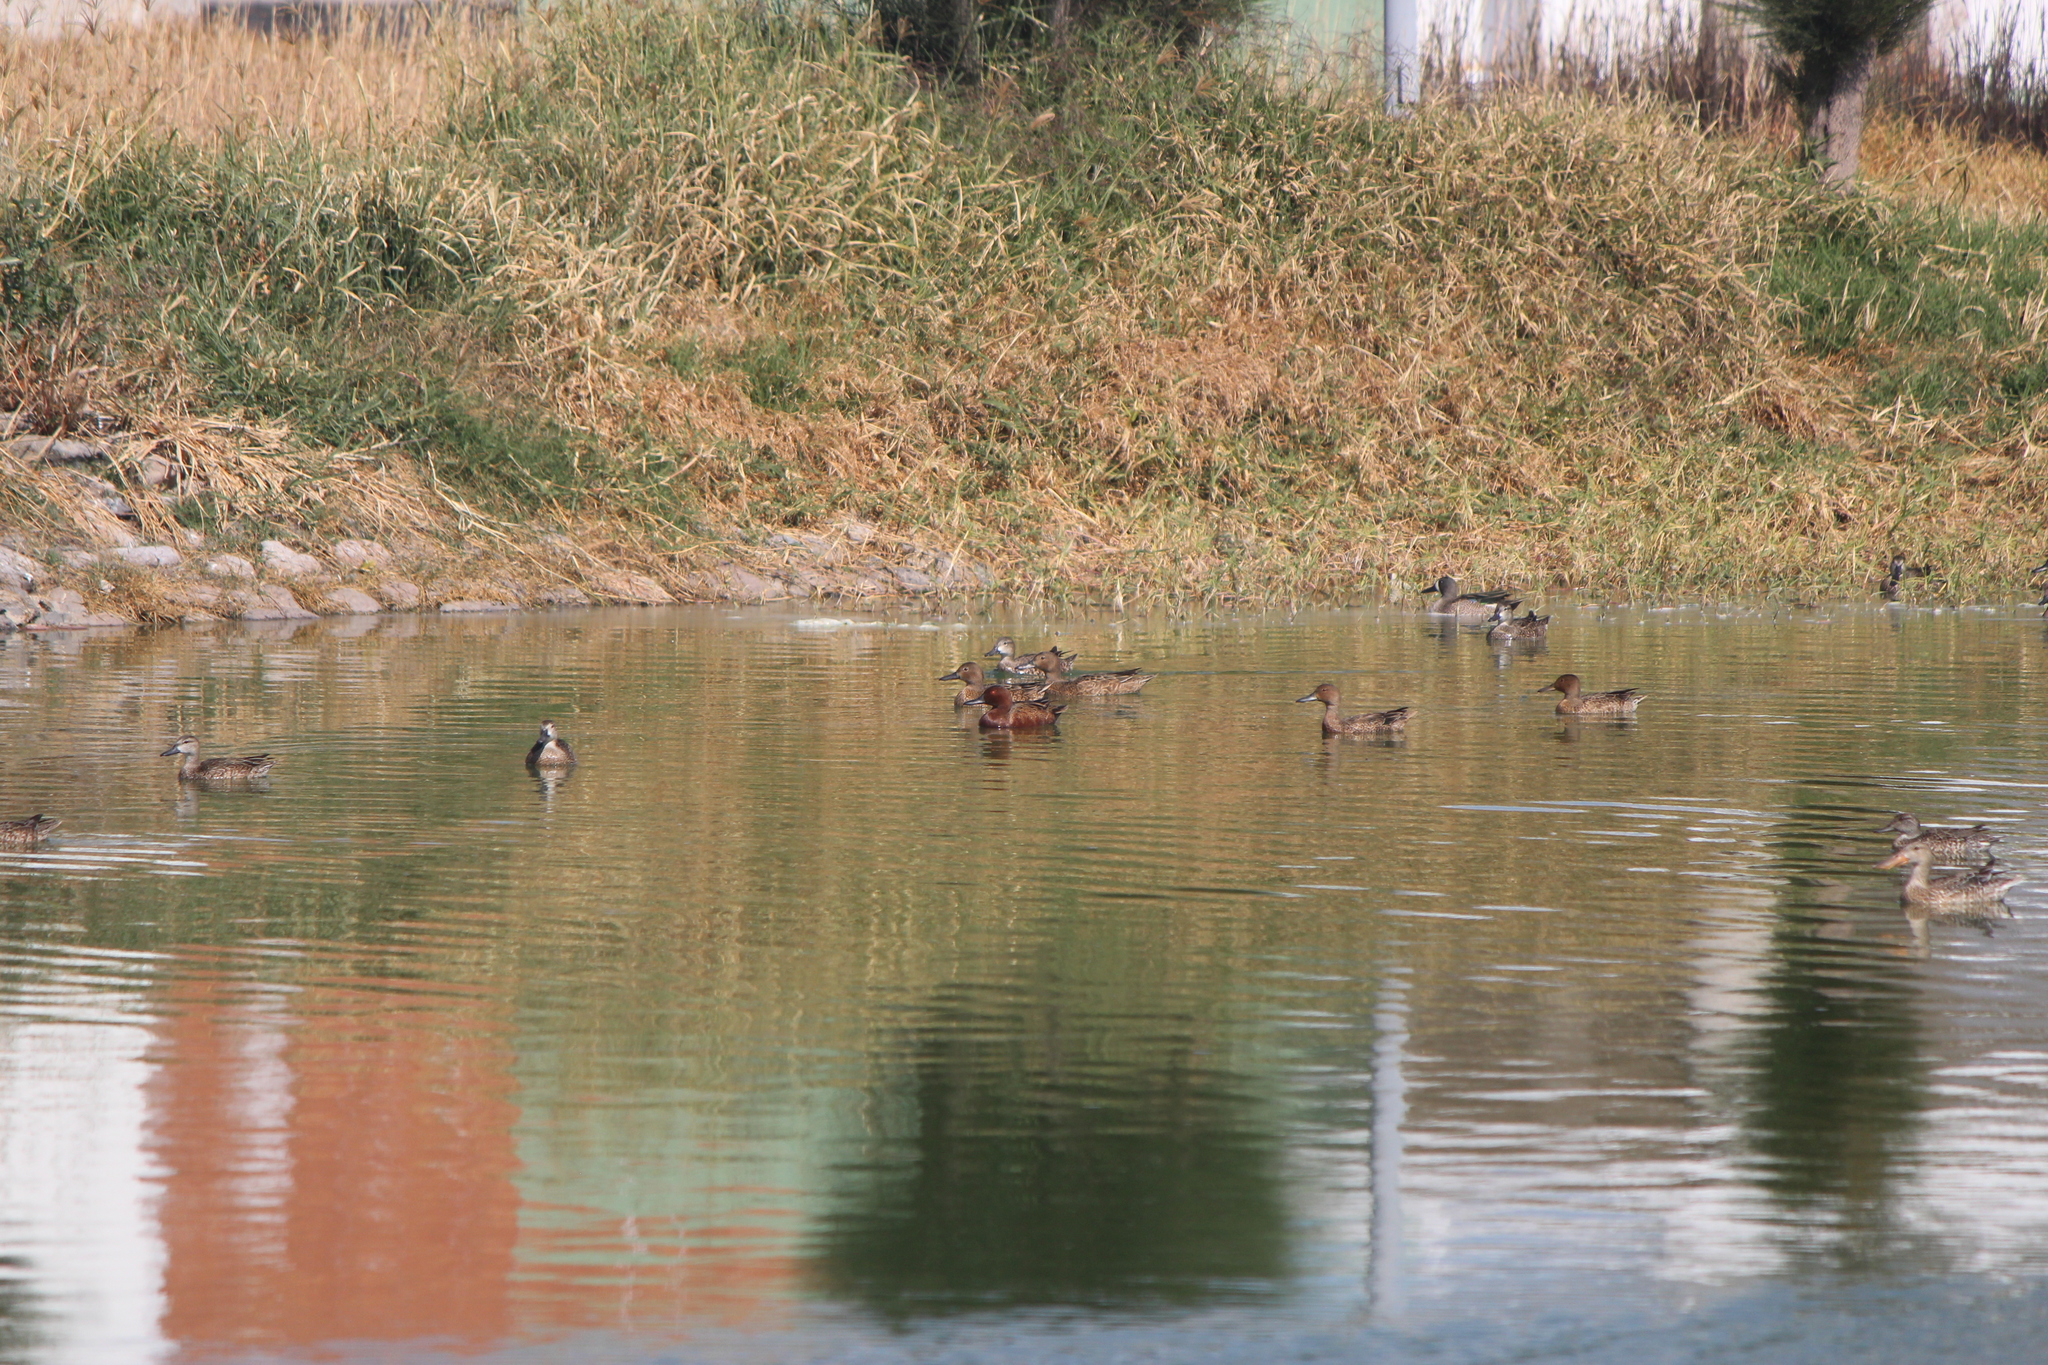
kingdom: Animalia
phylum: Chordata
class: Aves
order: Anseriformes
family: Anatidae
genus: Spatula
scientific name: Spatula cyanoptera
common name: Cinnamon teal
